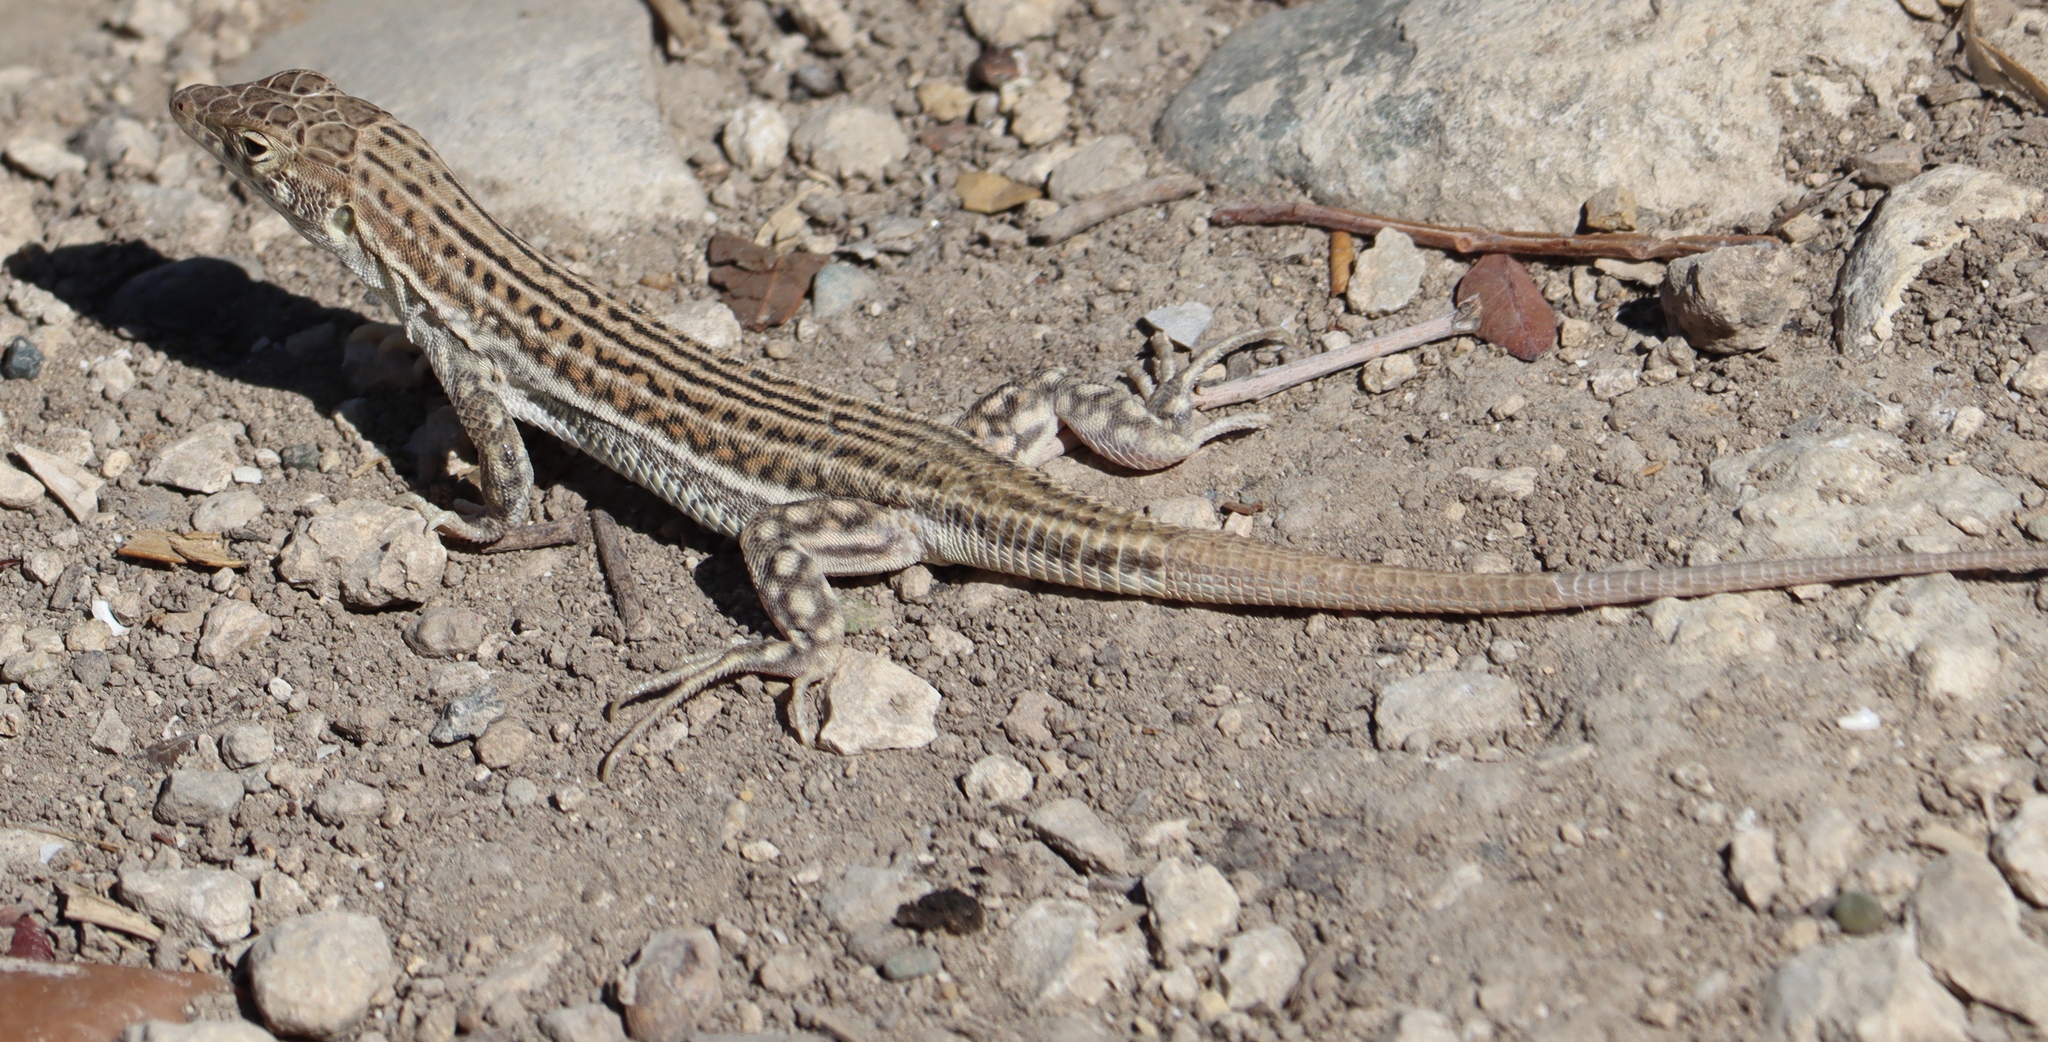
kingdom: Animalia
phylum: Chordata
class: Squamata
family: Lacertidae
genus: Acanthodactylus
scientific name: Acanthodactylus schreiberi
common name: Schreiber's fringe-fingered lizard
